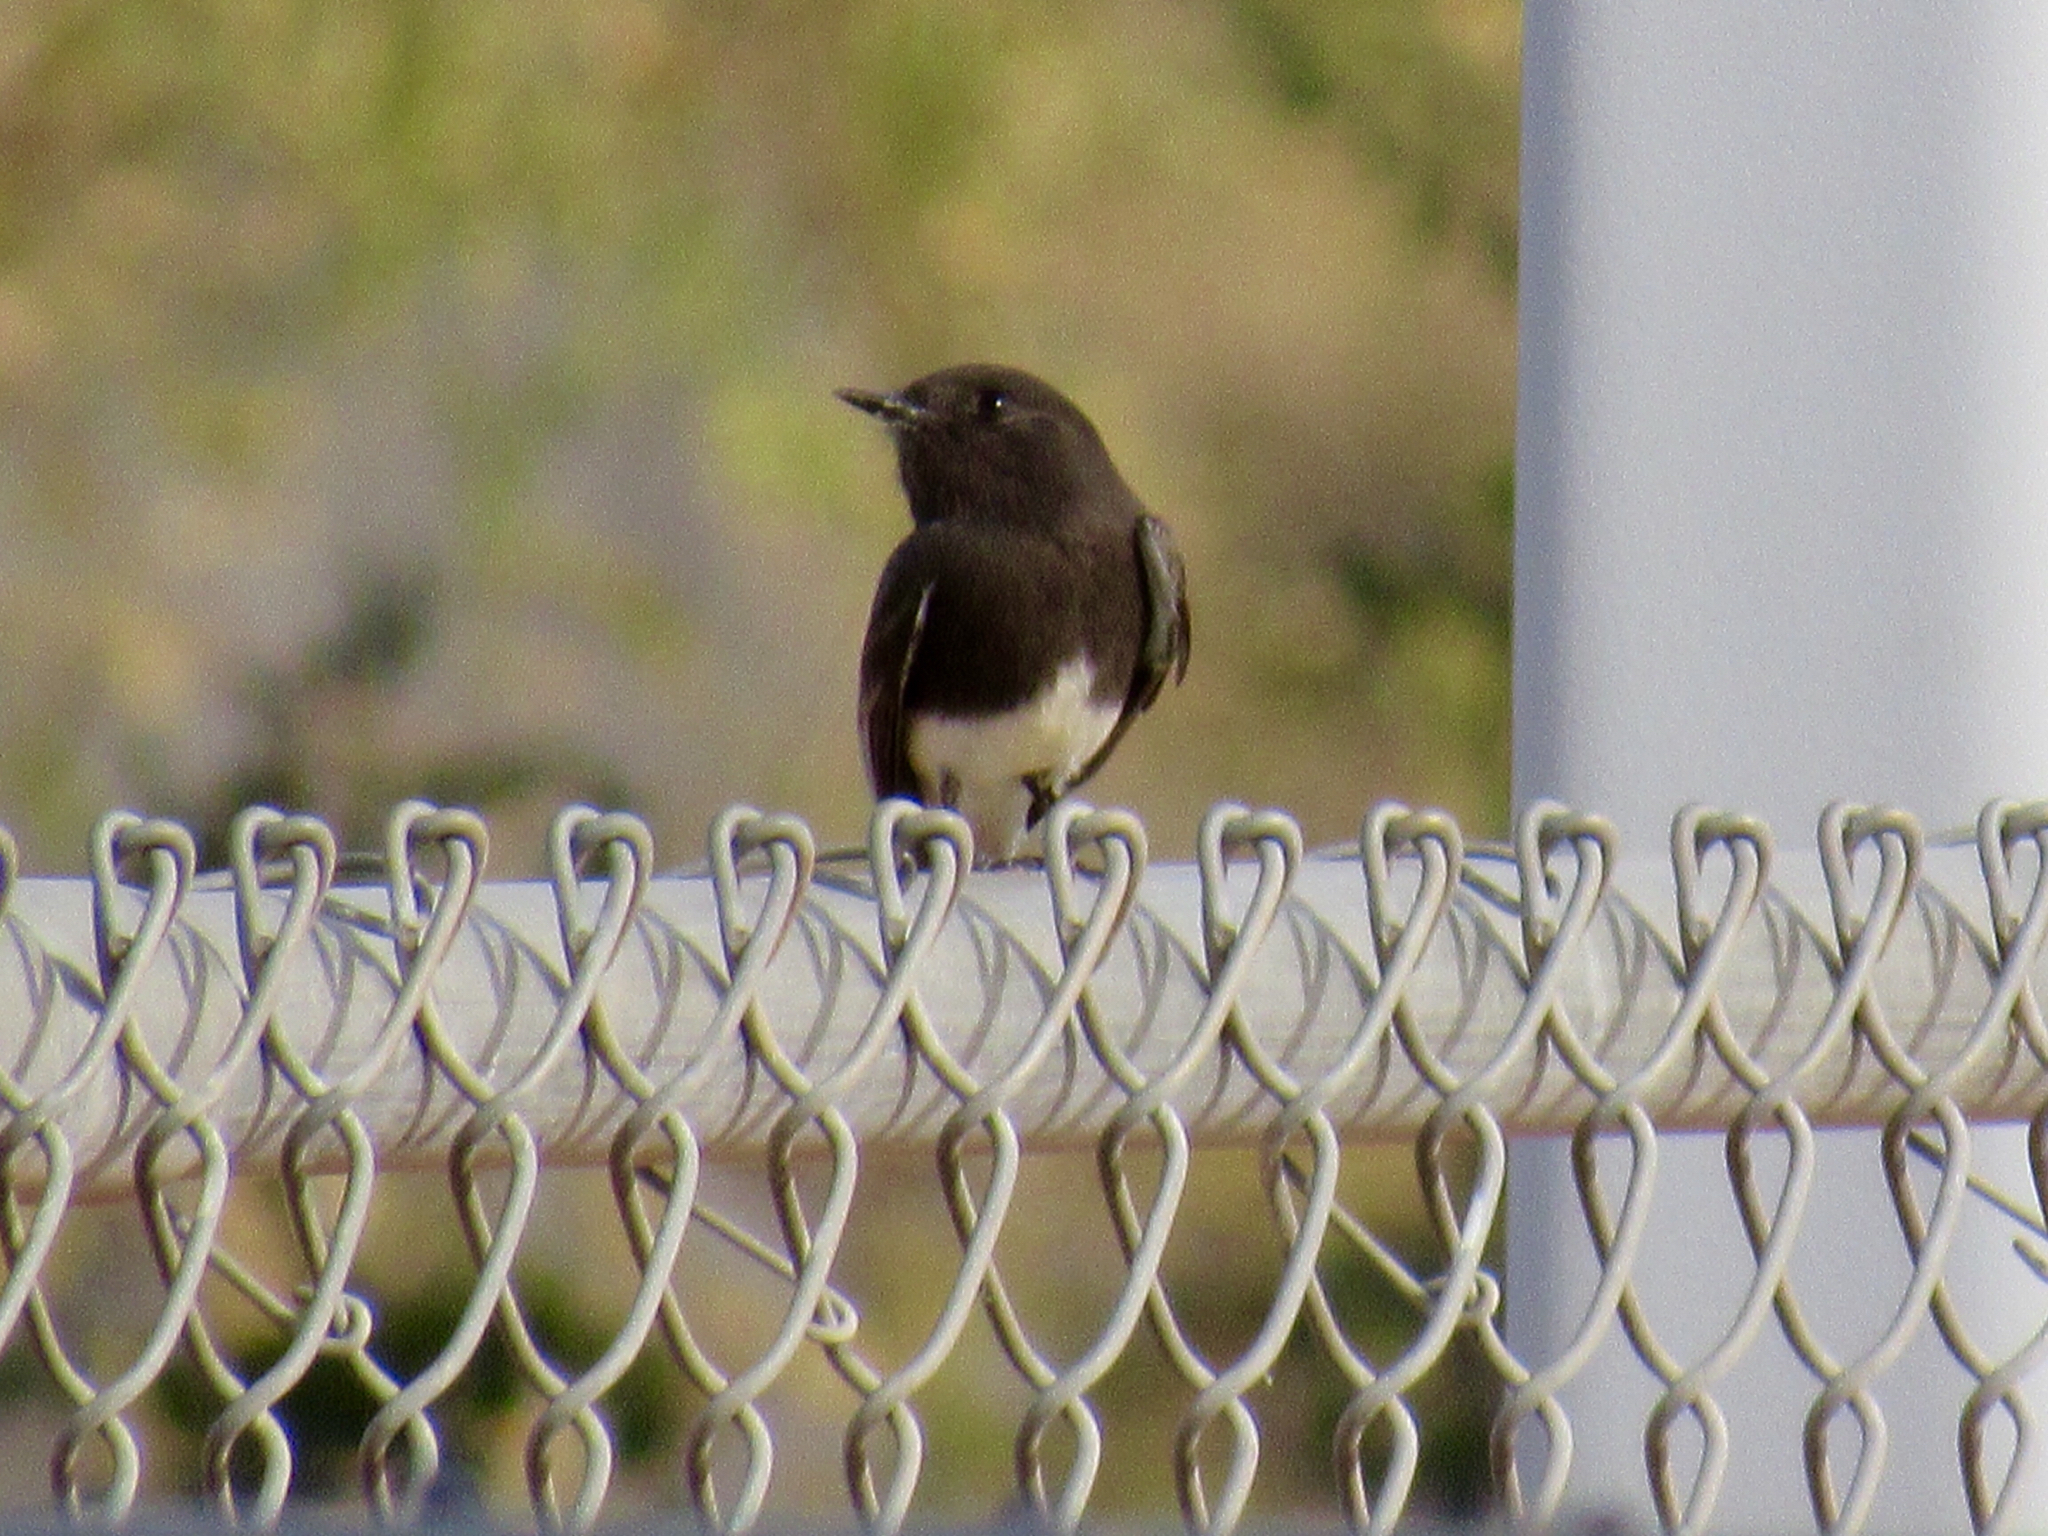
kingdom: Animalia
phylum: Chordata
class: Aves
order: Passeriformes
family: Tyrannidae
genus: Sayornis
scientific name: Sayornis nigricans
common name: Black phoebe
